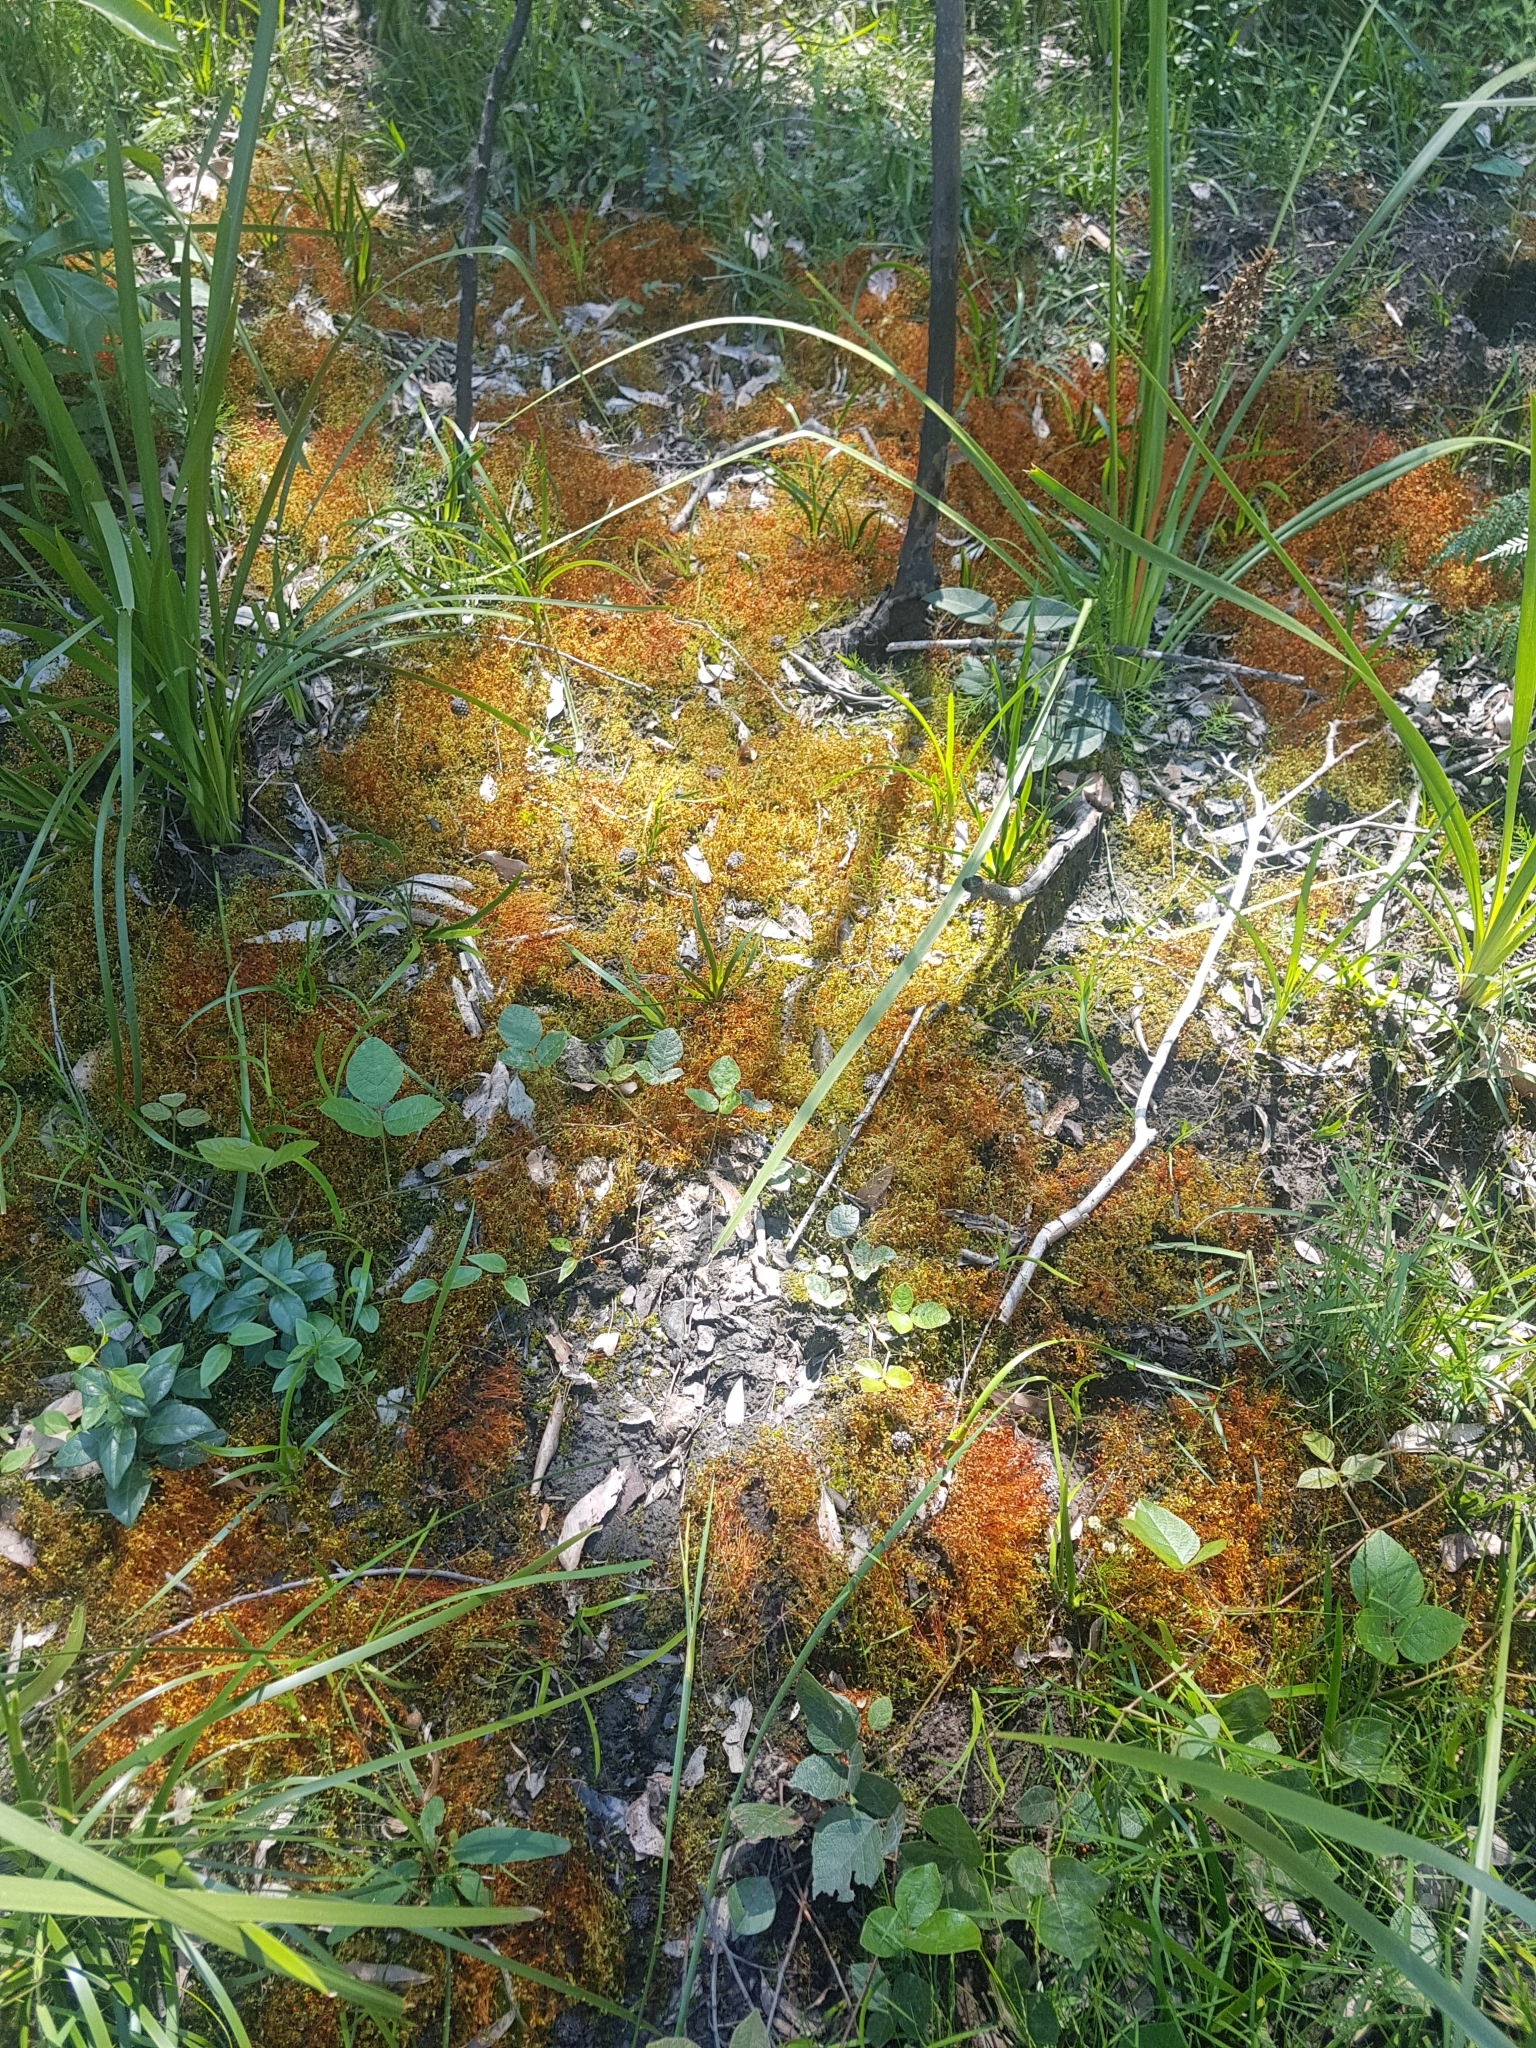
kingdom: Plantae
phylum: Bryophyta
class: Bryopsida
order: Funariales
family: Funariaceae
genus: Funaria
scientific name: Funaria hygrometrica
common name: Common cord moss
